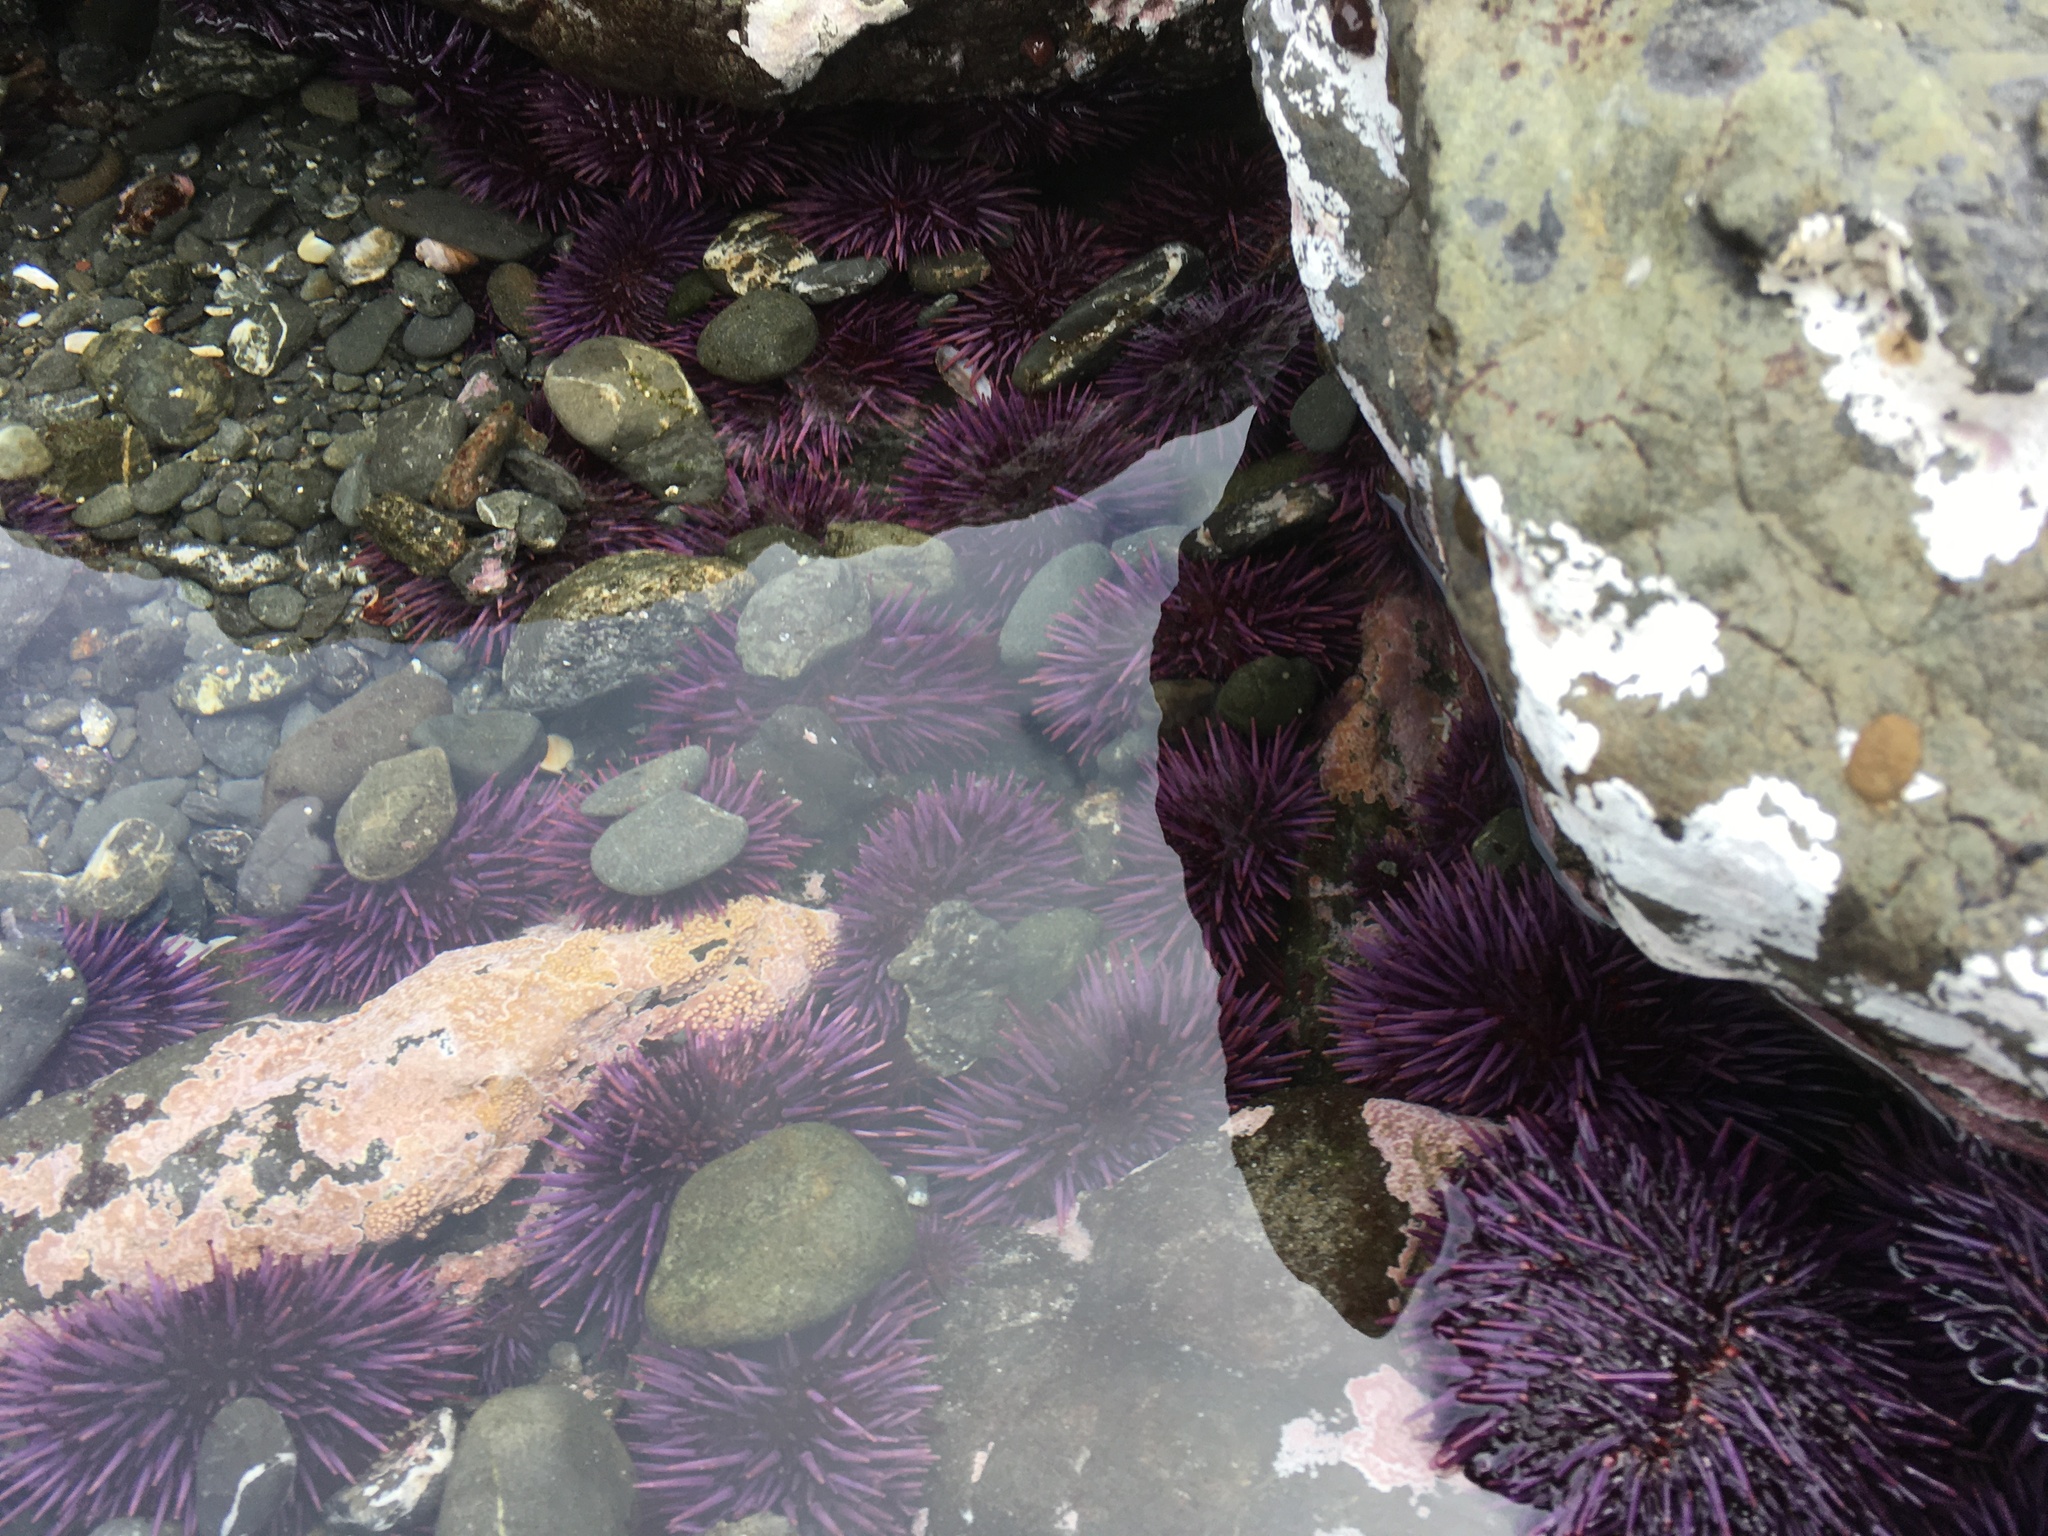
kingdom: Animalia
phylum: Echinodermata
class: Echinoidea
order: Camarodonta
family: Strongylocentrotidae
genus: Strongylocentrotus
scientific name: Strongylocentrotus purpuratus
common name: Purple sea urchin
